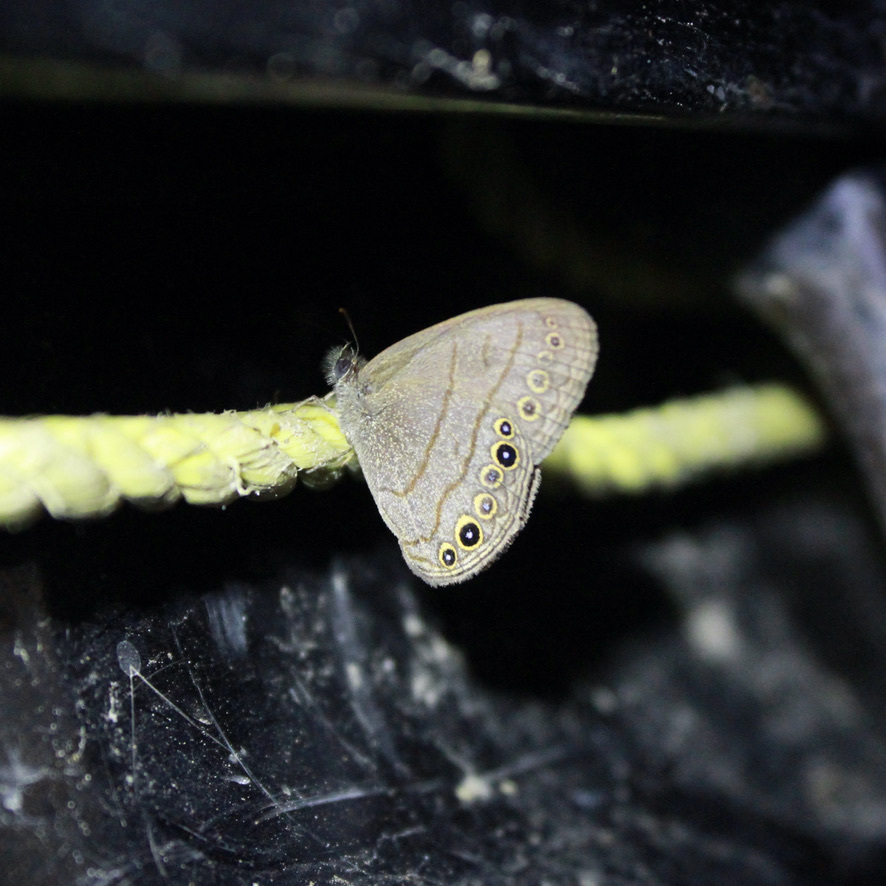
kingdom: Animalia
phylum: Arthropoda
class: Insecta
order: Lepidoptera
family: Nymphalidae
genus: Hermeuptychia
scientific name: Hermeuptychia canthe
